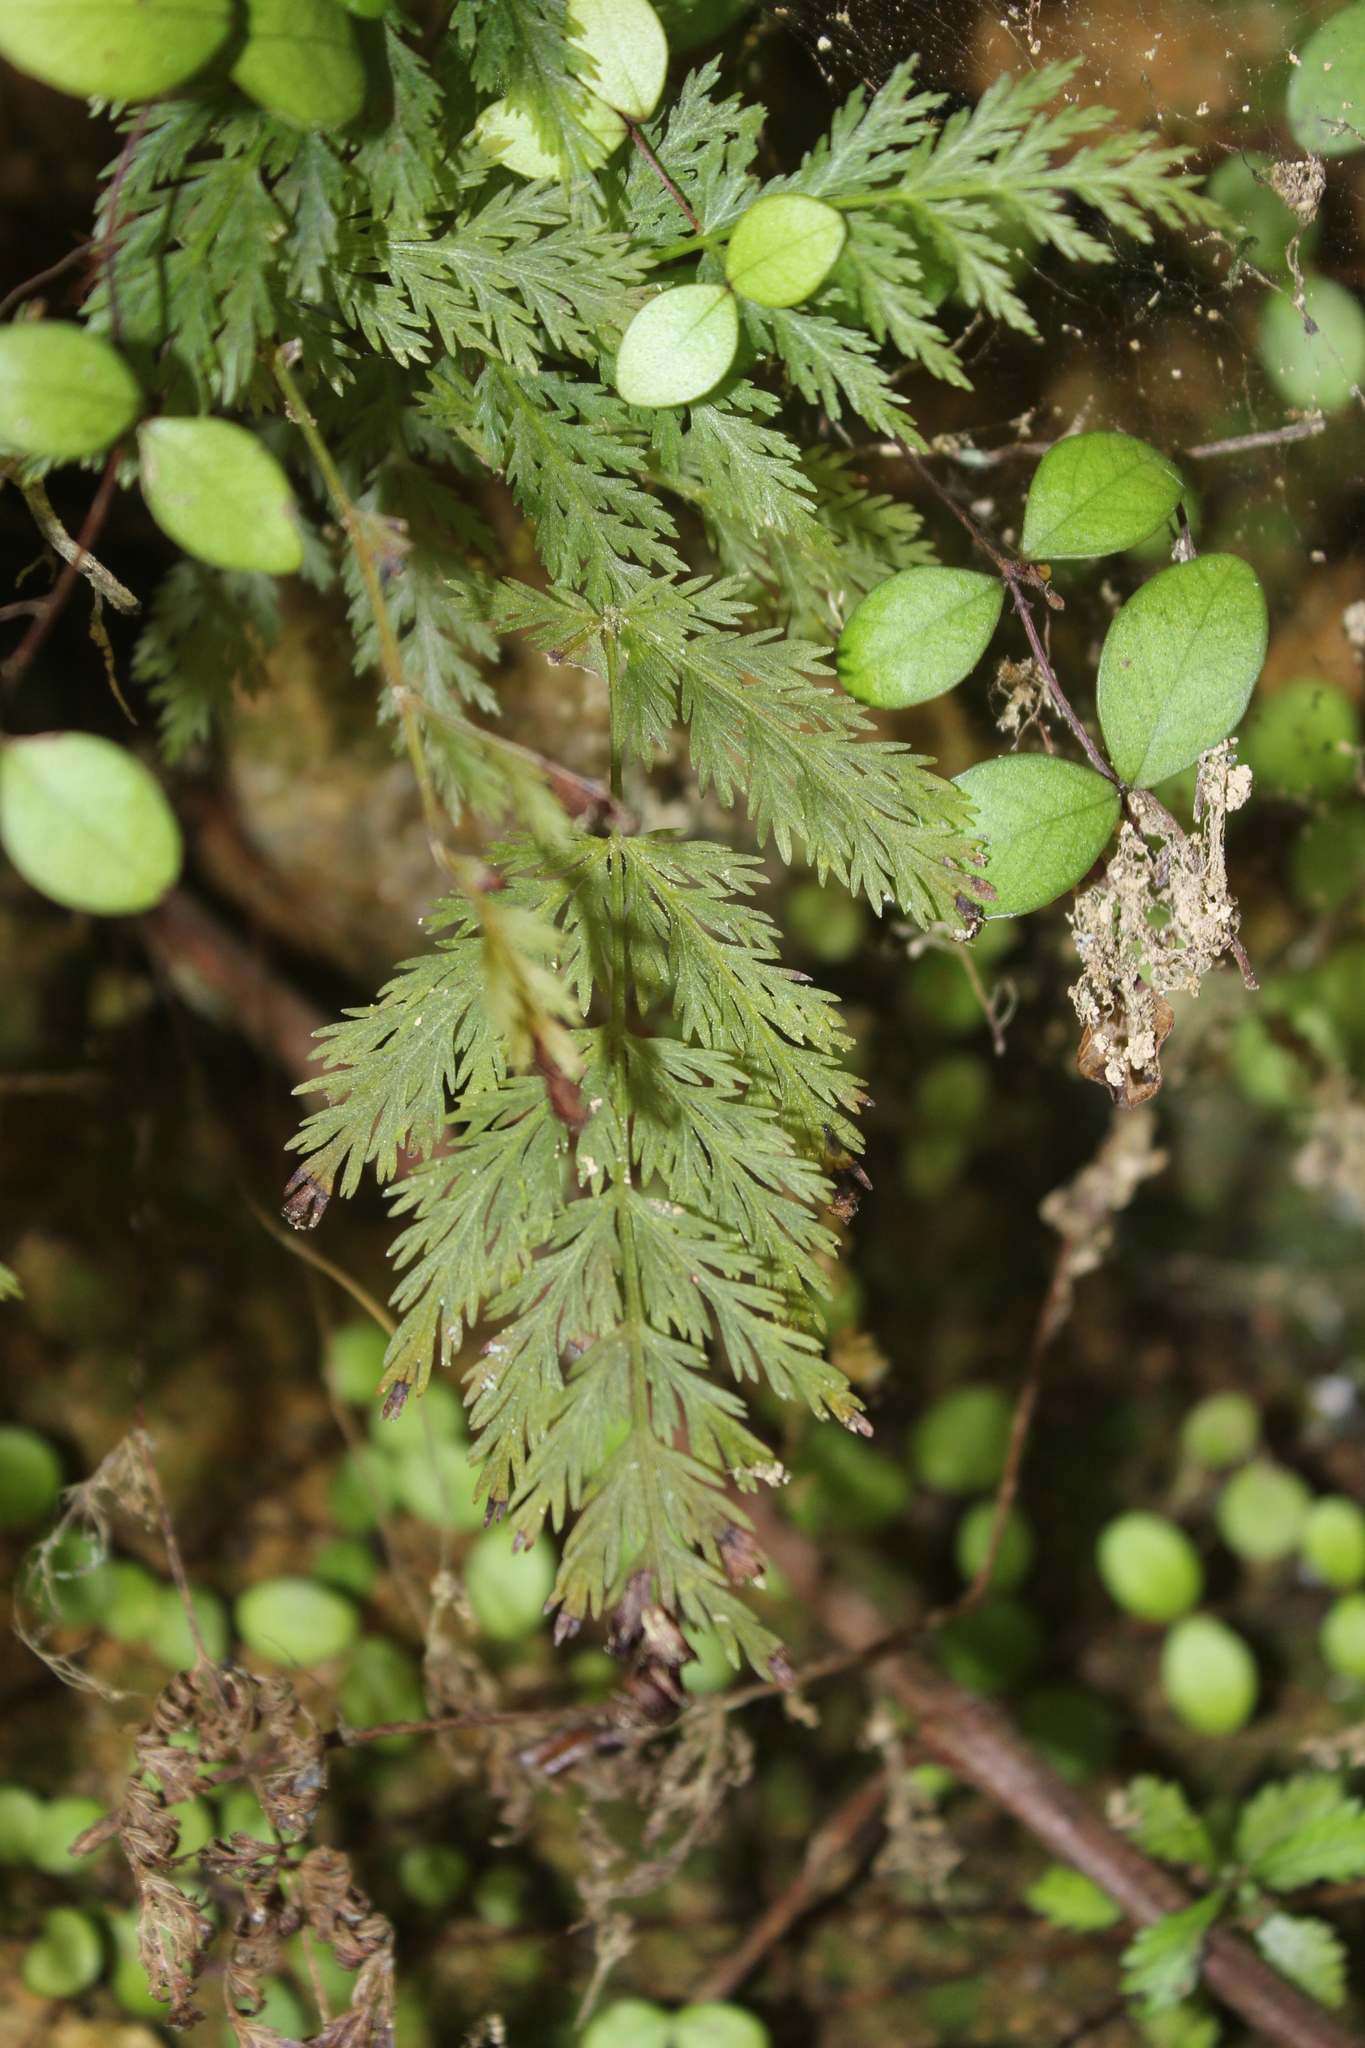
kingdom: Plantae
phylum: Tracheophyta
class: Polypodiopsida
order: Osmundales
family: Osmundaceae
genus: Leptopteris
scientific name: Leptopteris hymenophylloides
